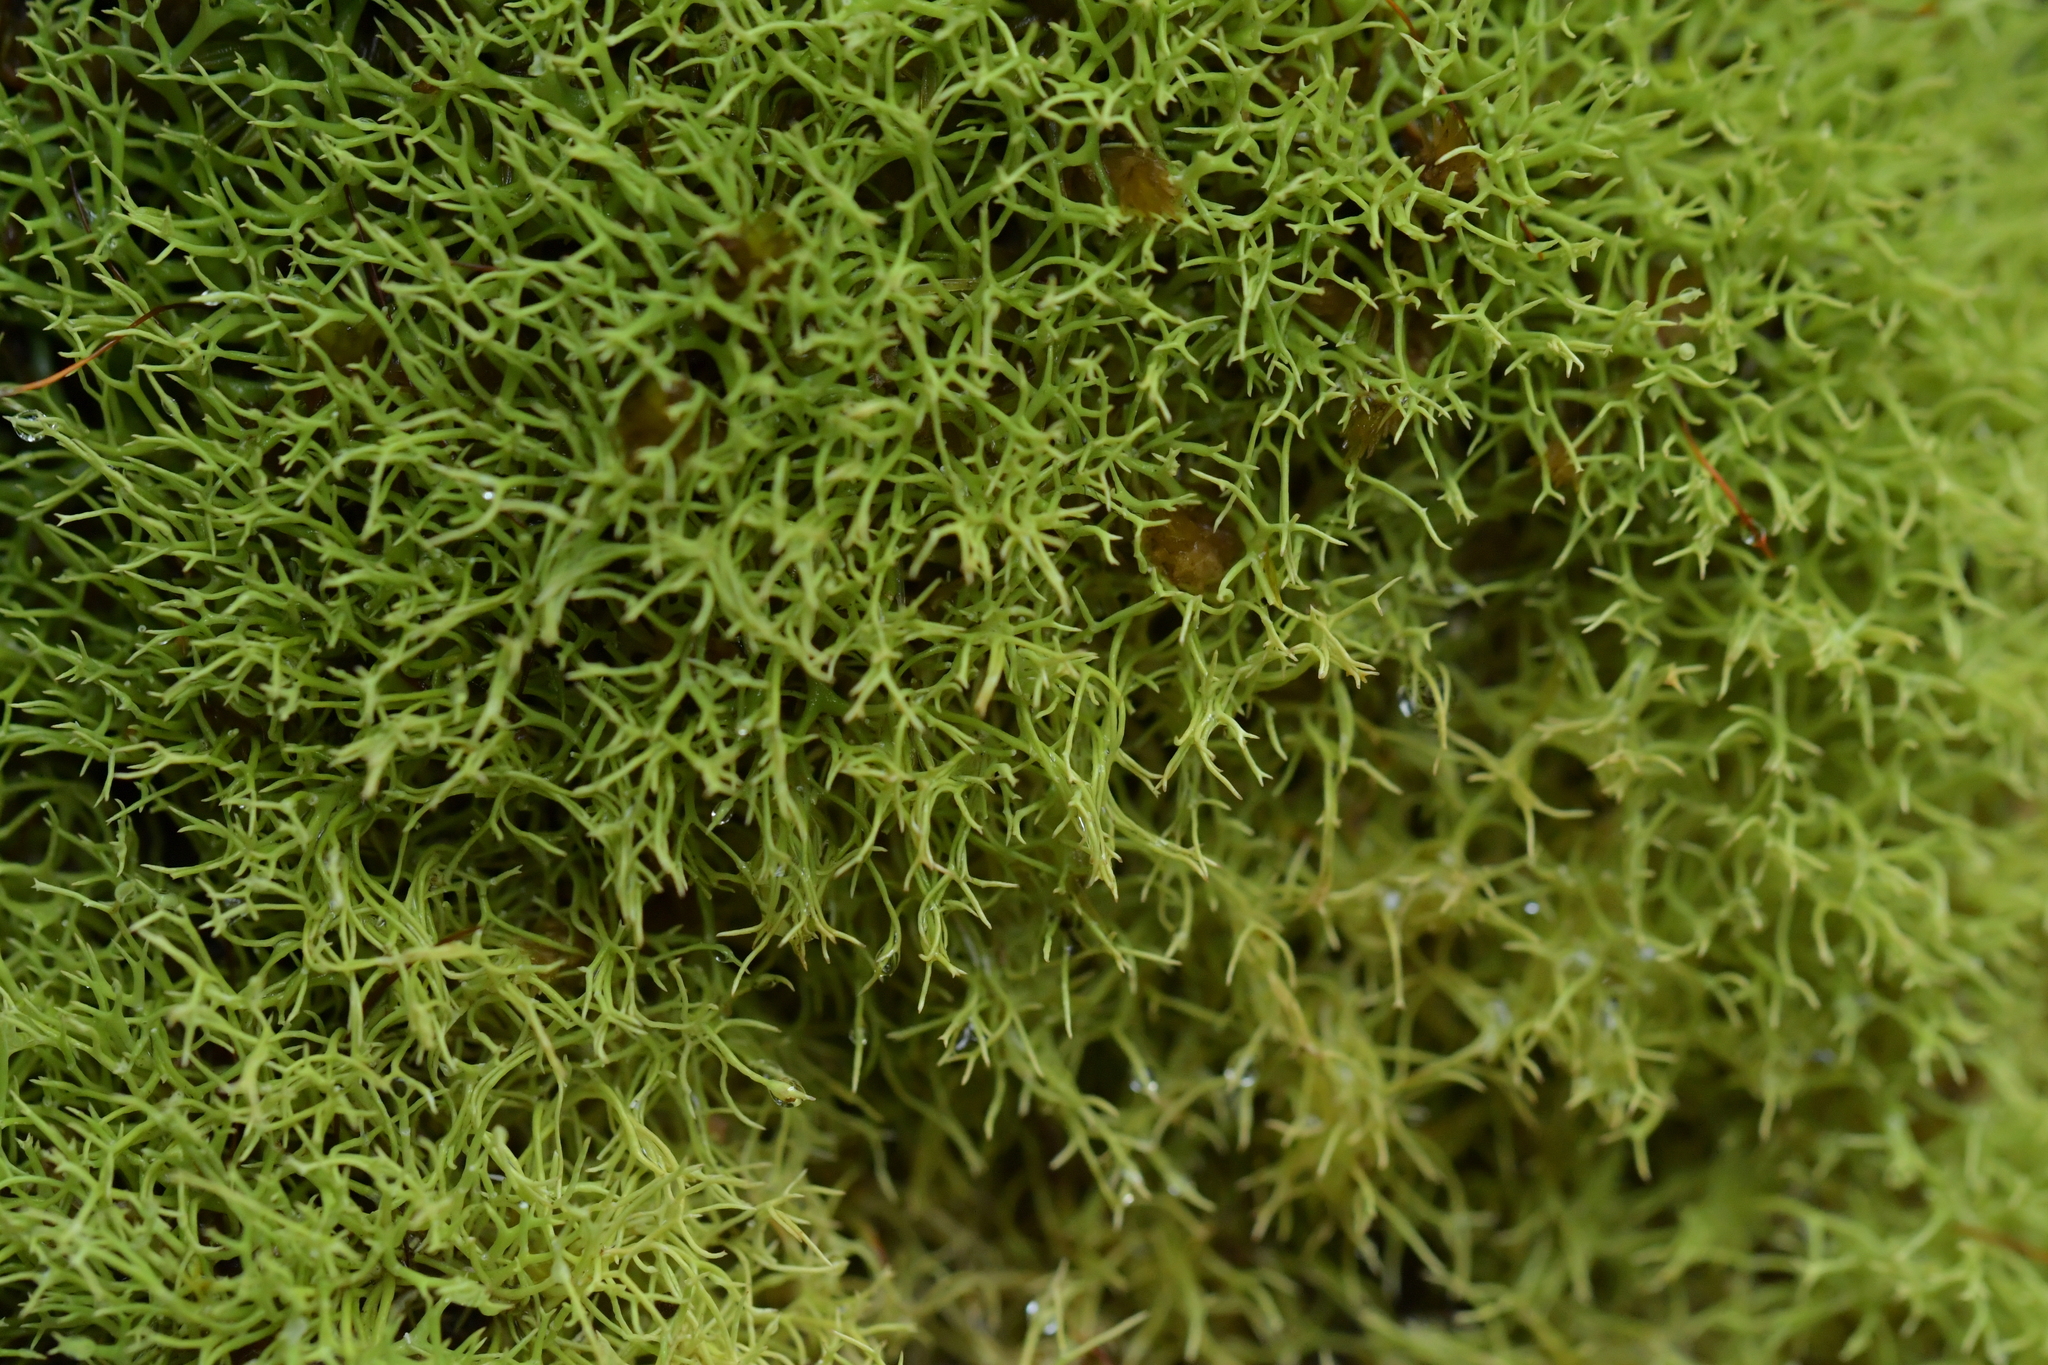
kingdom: Fungi
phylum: Ascomycota
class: Lecanoromycetes
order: Lecanorales
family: Cladoniaceae
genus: Cladia
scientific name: Cladia inflata
